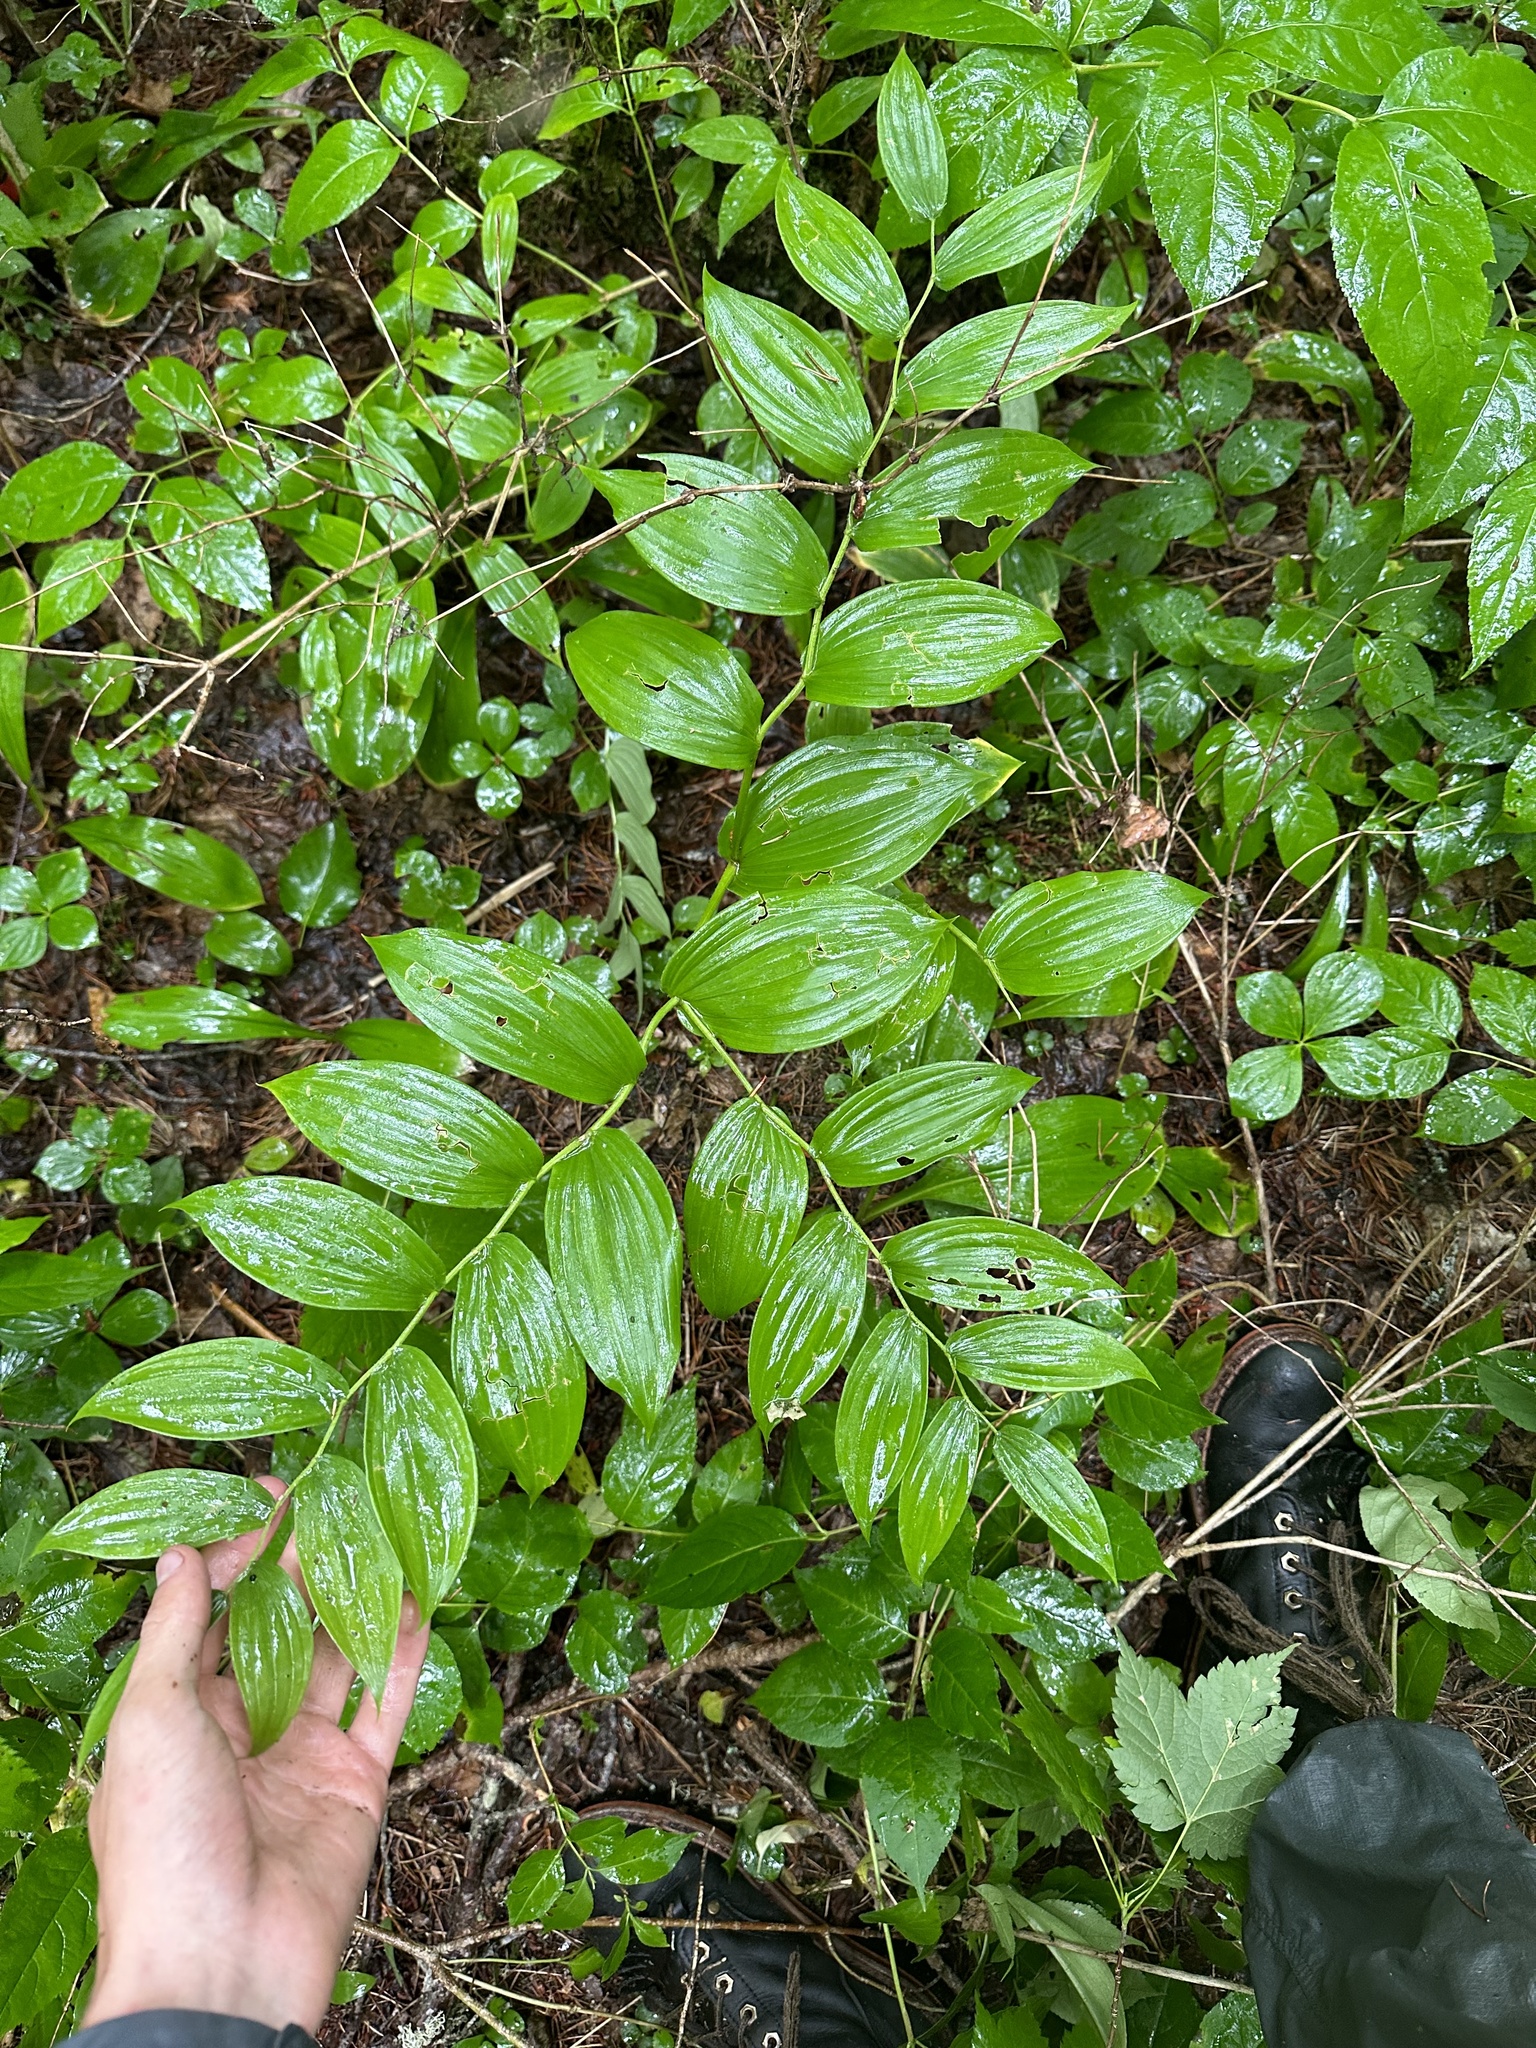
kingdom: Plantae
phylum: Tracheophyta
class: Liliopsida
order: Liliales
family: Liliaceae
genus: Streptopus
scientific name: Streptopus lanceolatus
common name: Rose mandarin
